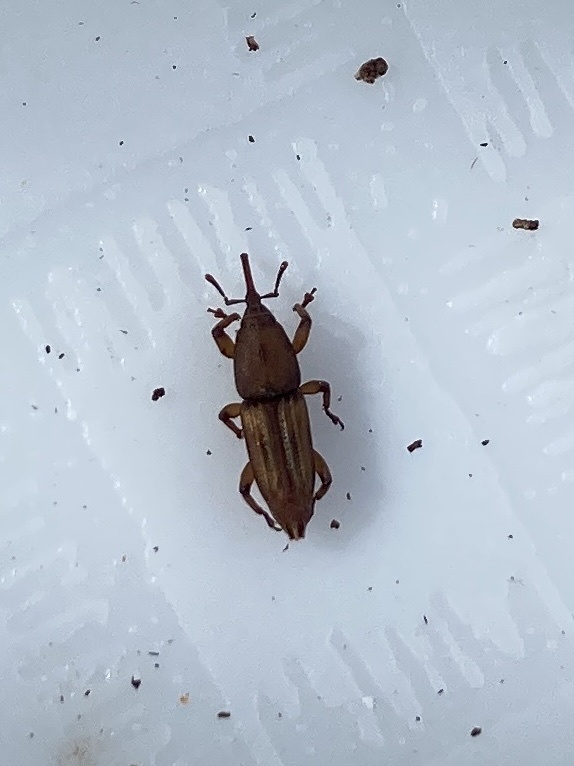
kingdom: Animalia
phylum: Arthropoda
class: Insecta
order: Coleoptera
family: Dryophthoridae
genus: Diocalandra
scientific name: Diocalandra taitensis
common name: Weevil
